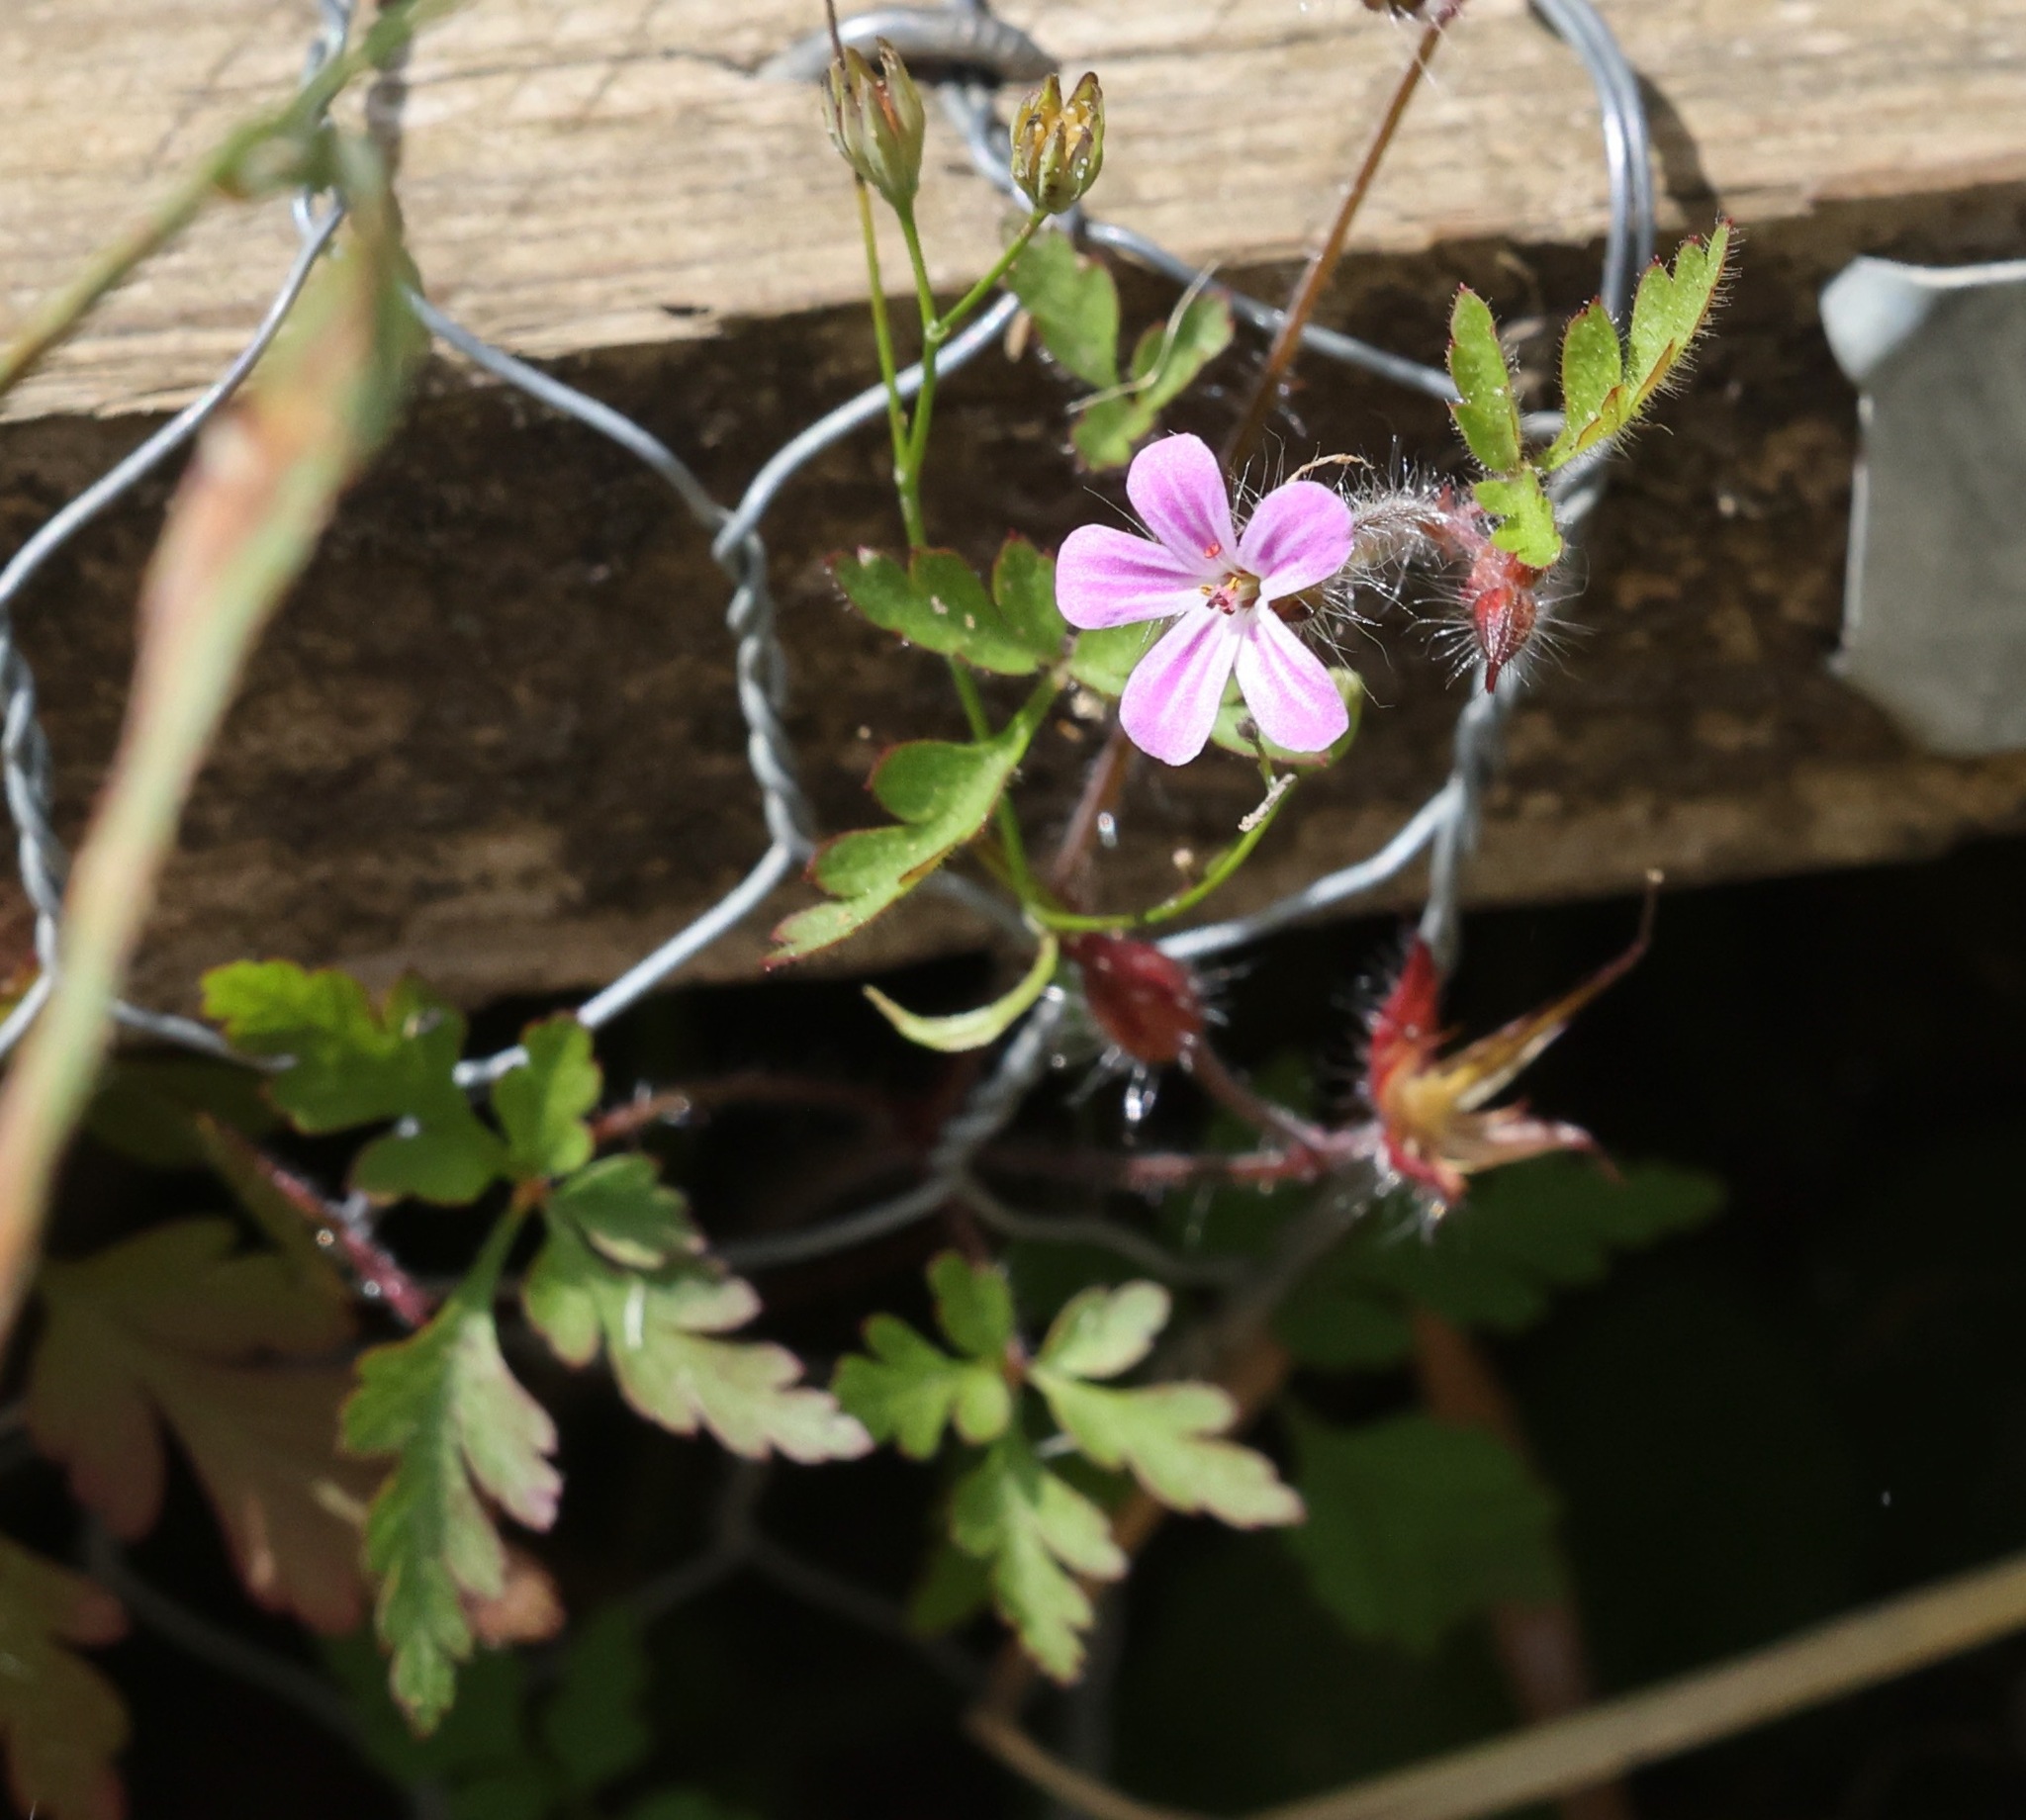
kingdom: Plantae
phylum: Tracheophyta
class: Magnoliopsida
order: Geraniales
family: Geraniaceae
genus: Geranium
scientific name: Geranium robertianum
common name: Herb-robert
